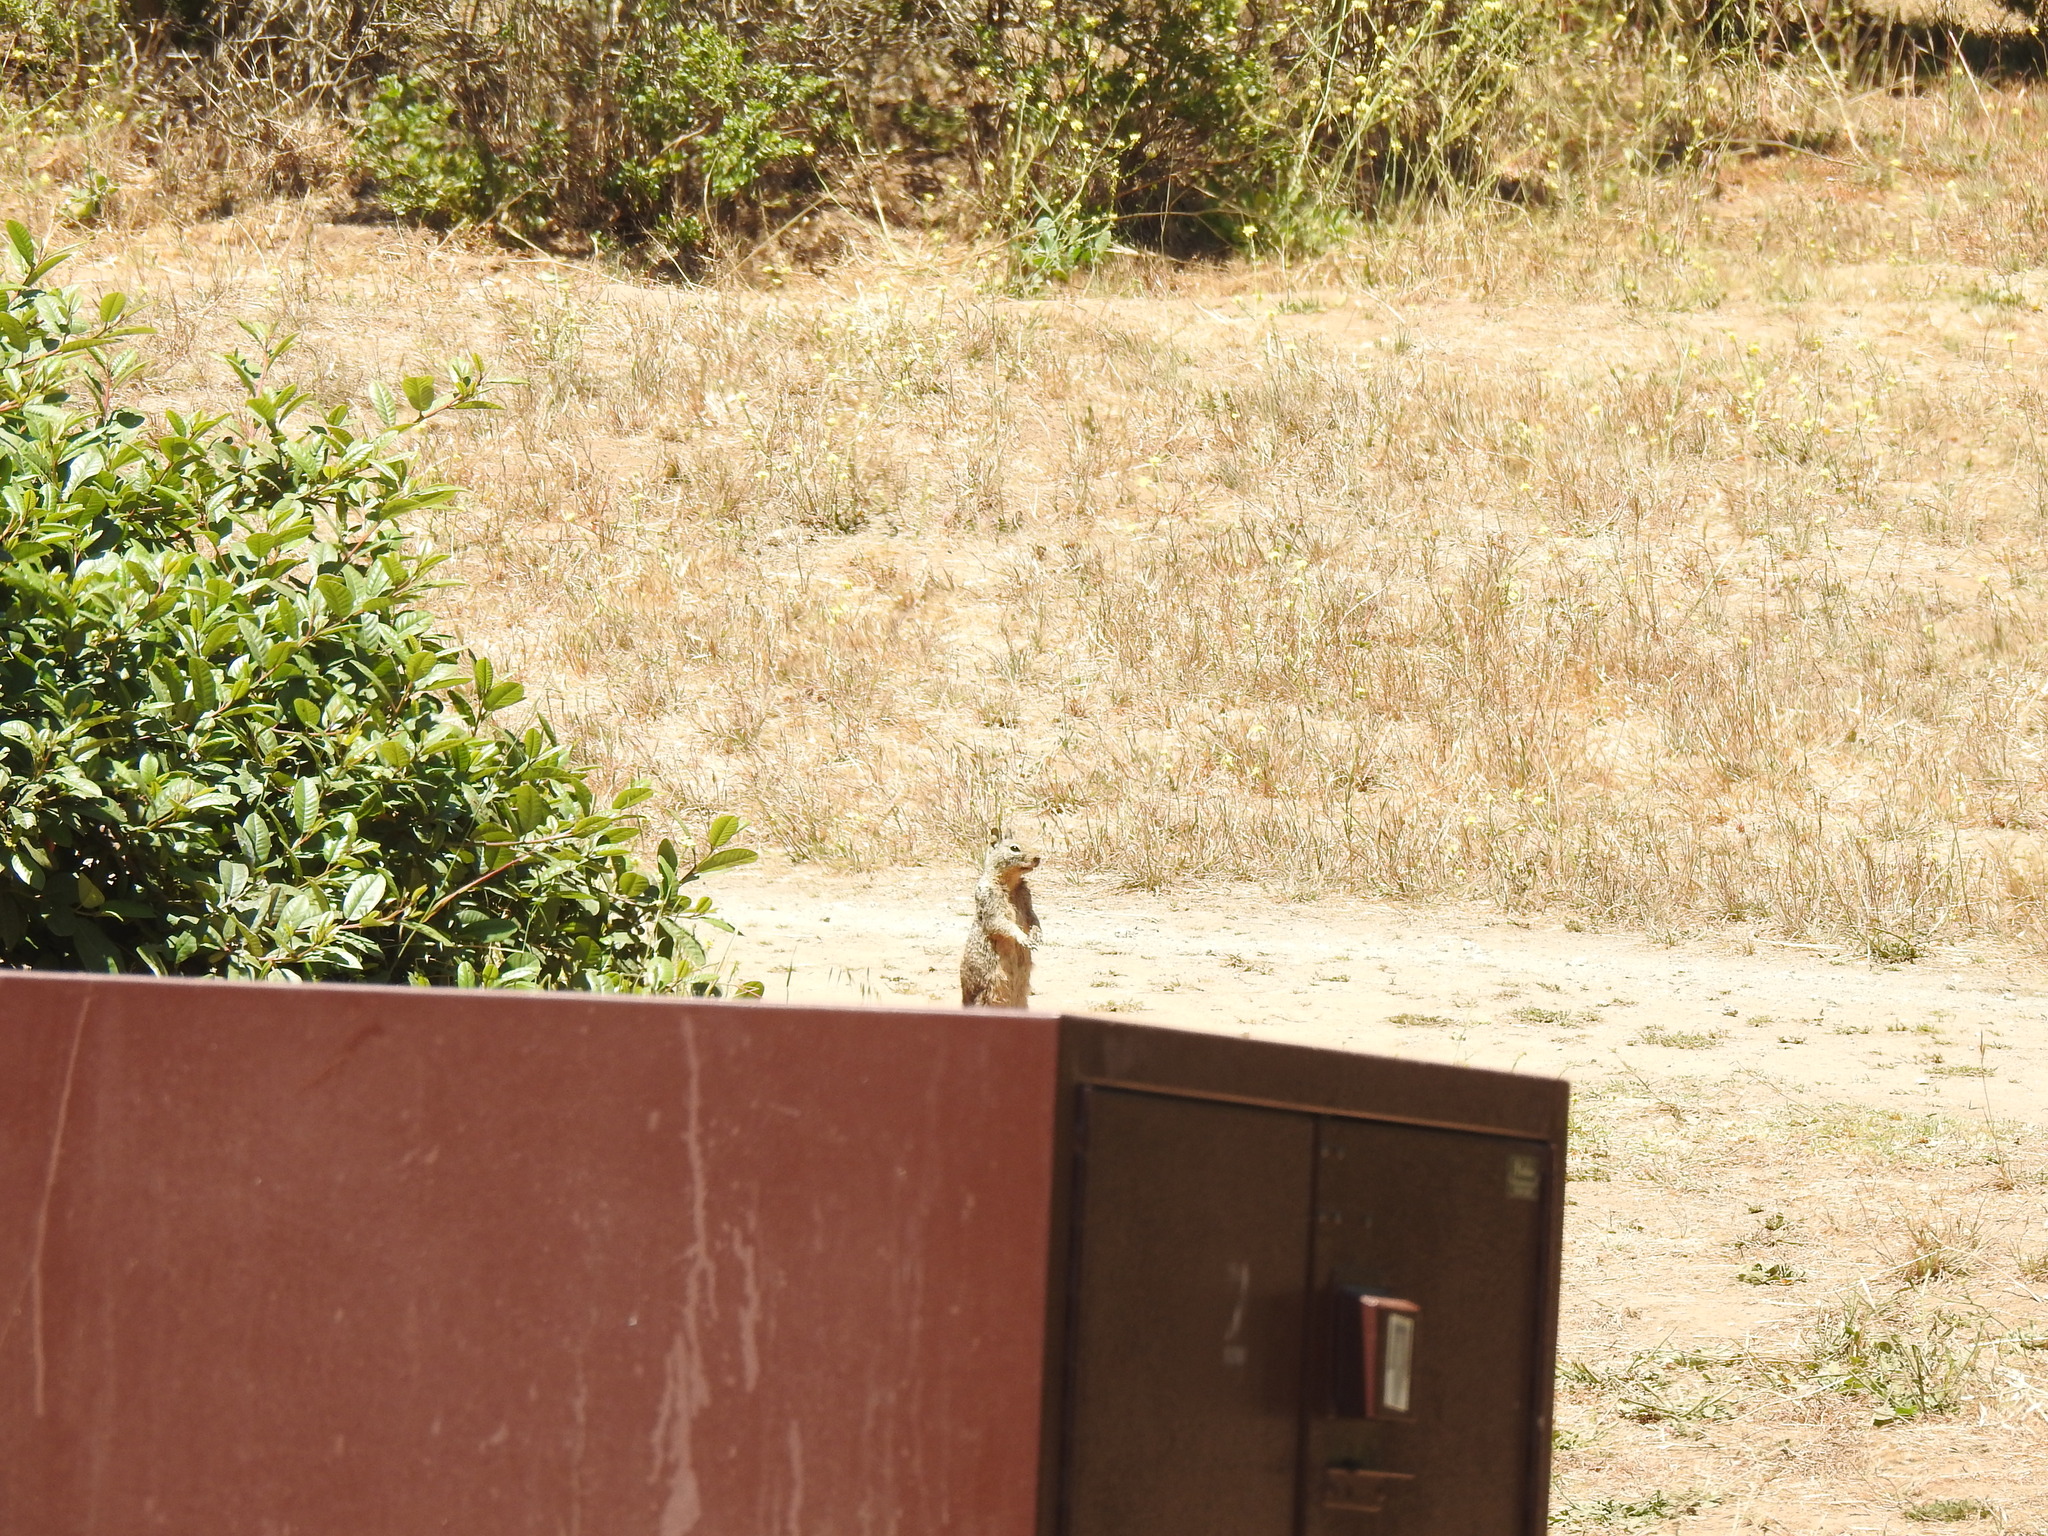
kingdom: Animalia
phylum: Chordata
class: Mammalia
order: Rodentia
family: Sciuridae
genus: Otospermophilus
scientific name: Otospermophilus beecheyi
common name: California ground squirrel
